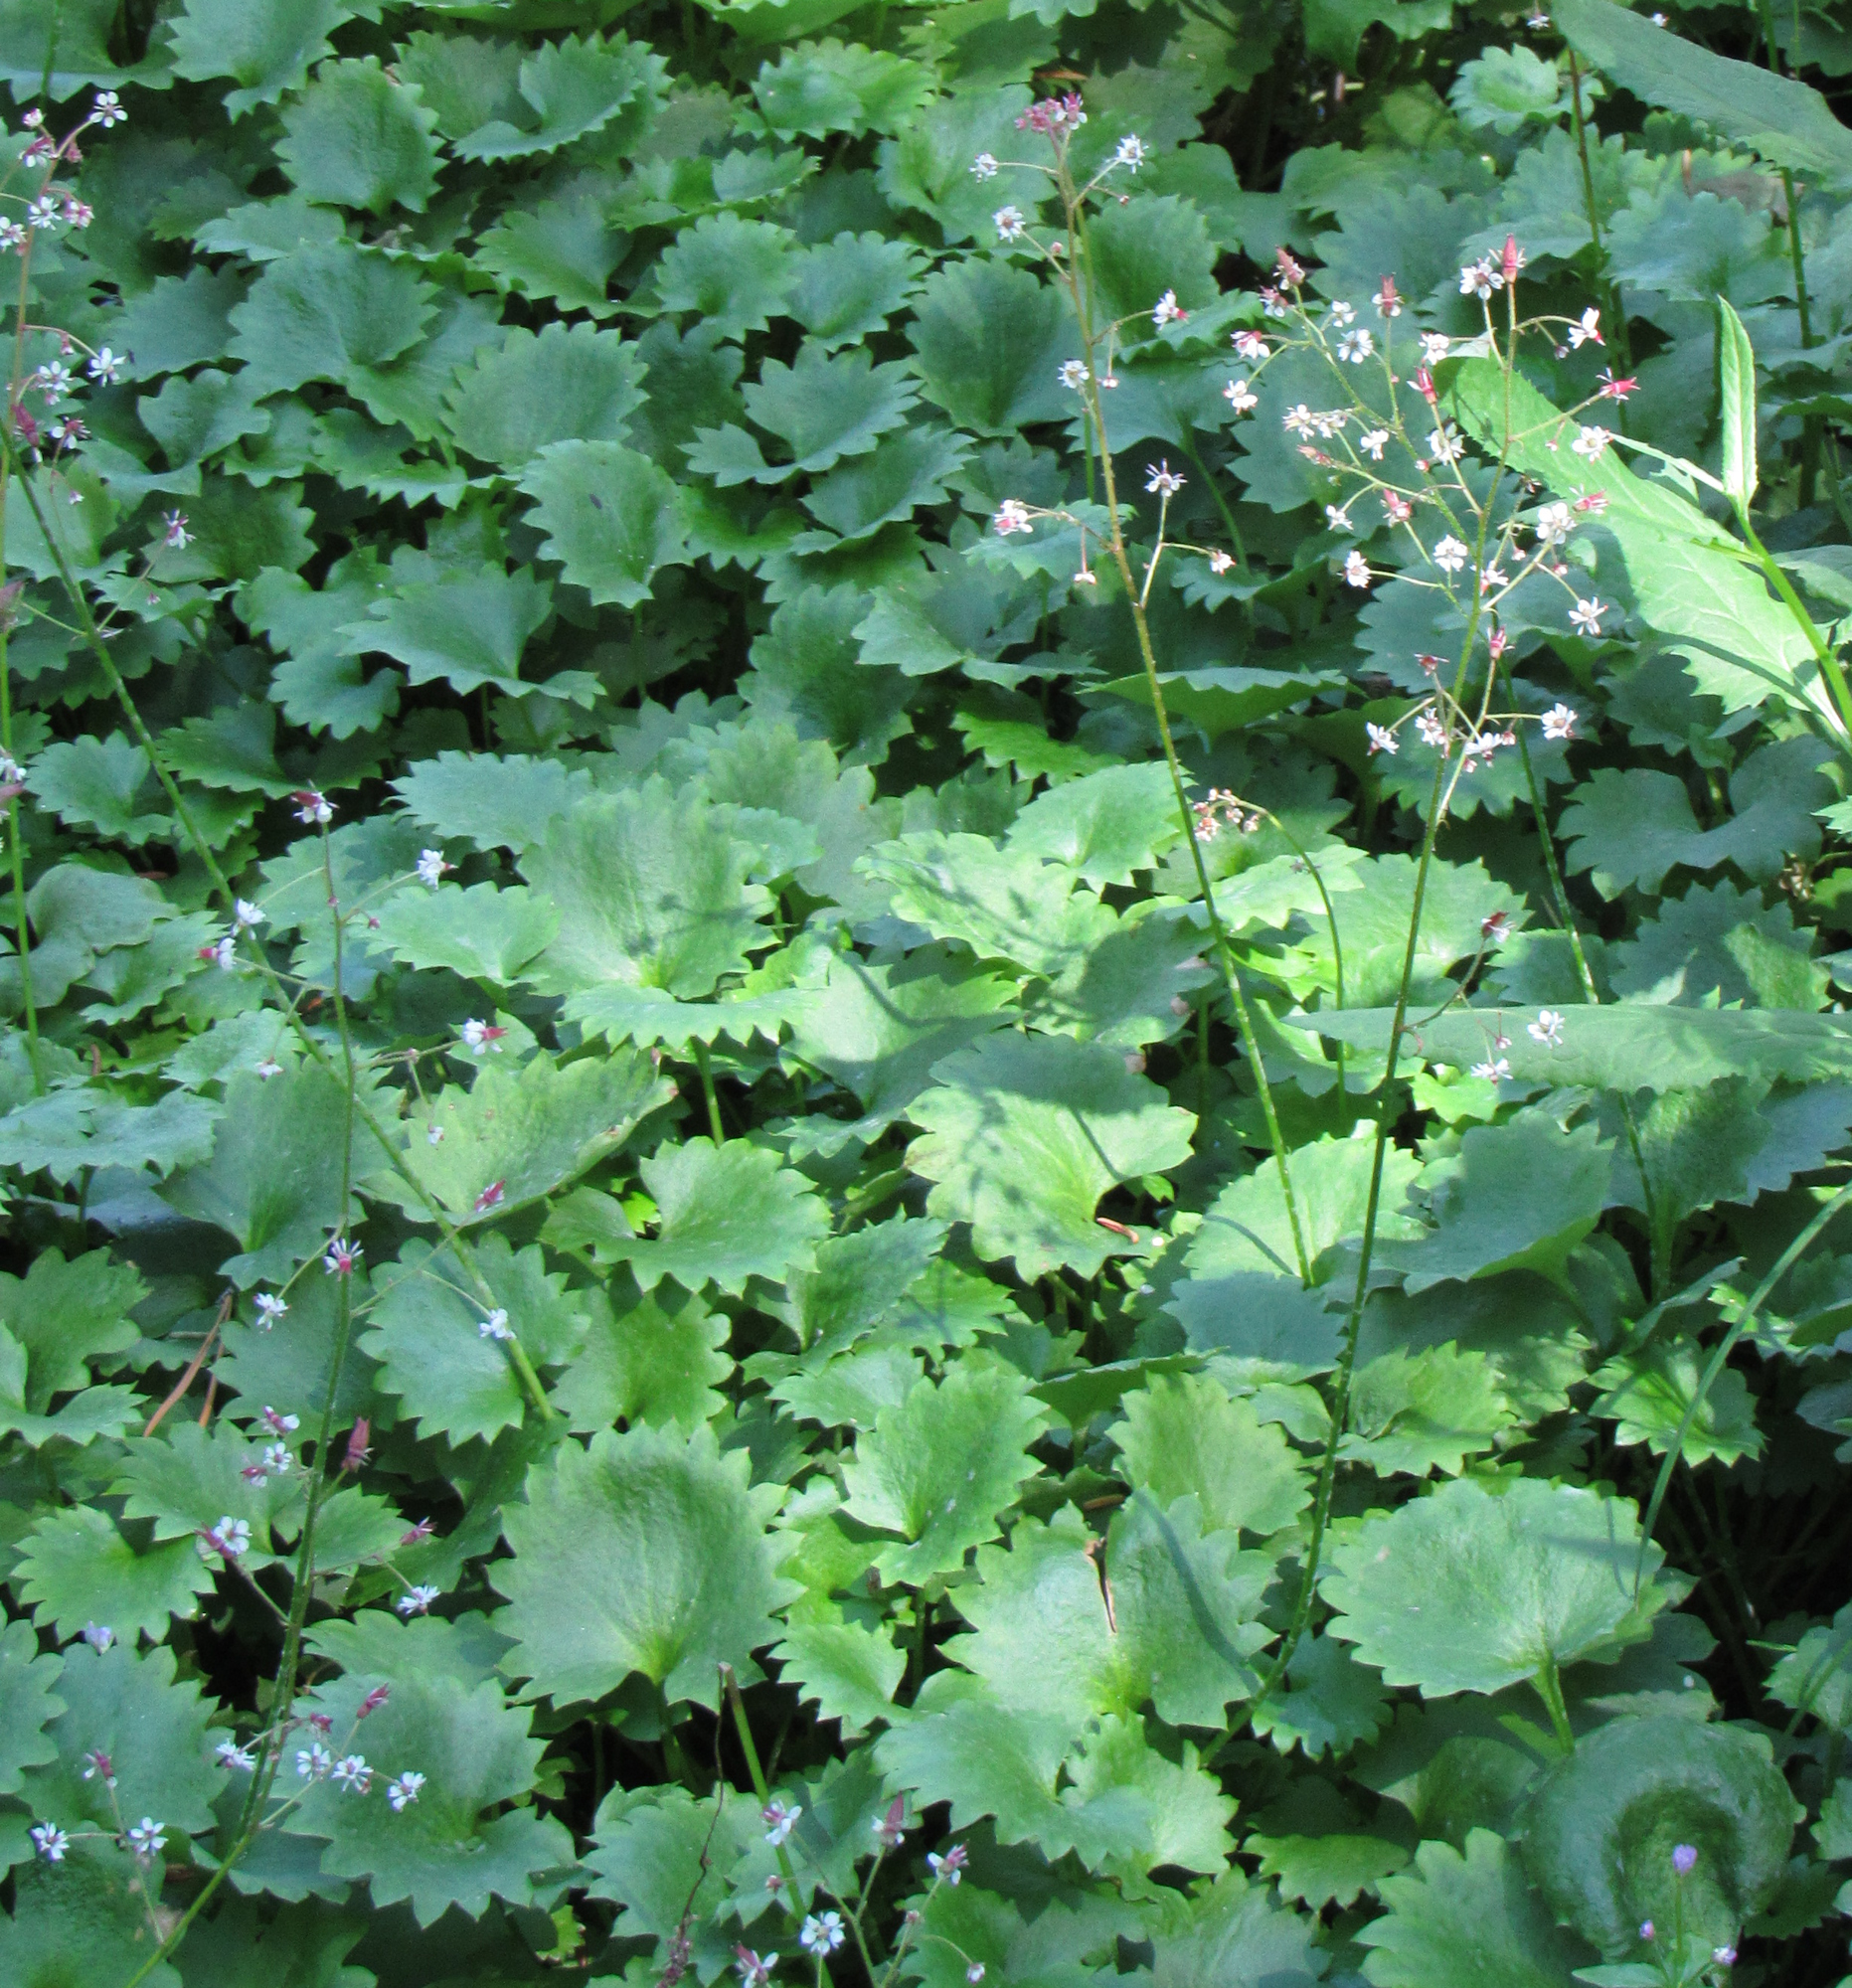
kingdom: Plantae
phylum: Tracheophyta
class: Magnoliopsida
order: Saxifragales
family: Saxifragaceae
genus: Micranthes
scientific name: Micranthes odontoloma
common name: Brook saxifrage
